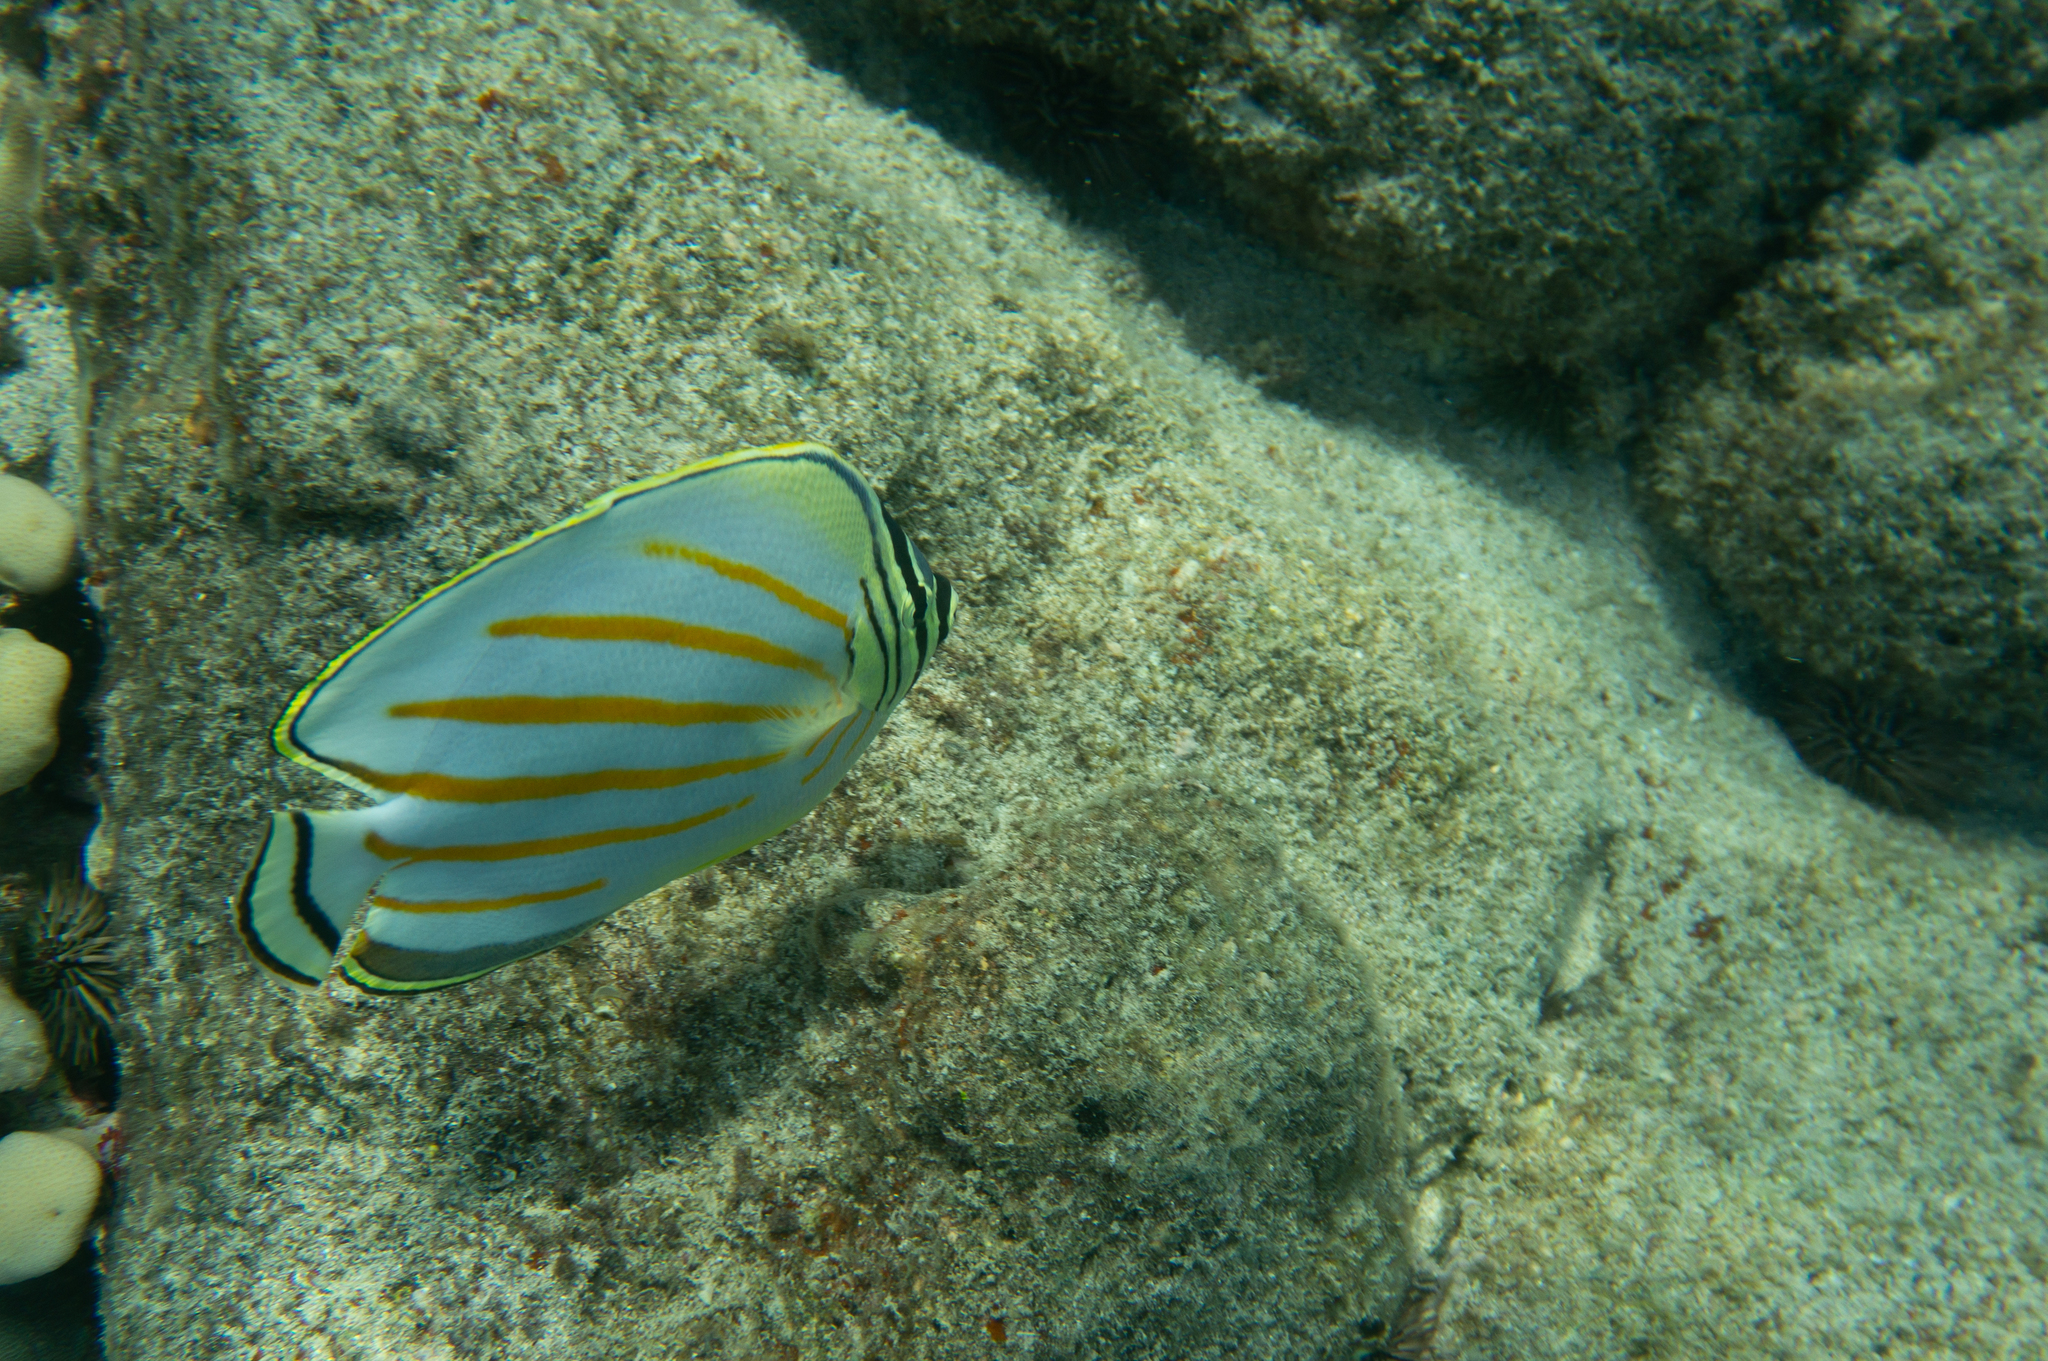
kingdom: Animalia
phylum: Chordata
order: Perciformes
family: Chaetodontidae
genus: Chaetodon
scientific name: Chaetodon ornatissimus
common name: Ornate butterflyfish
